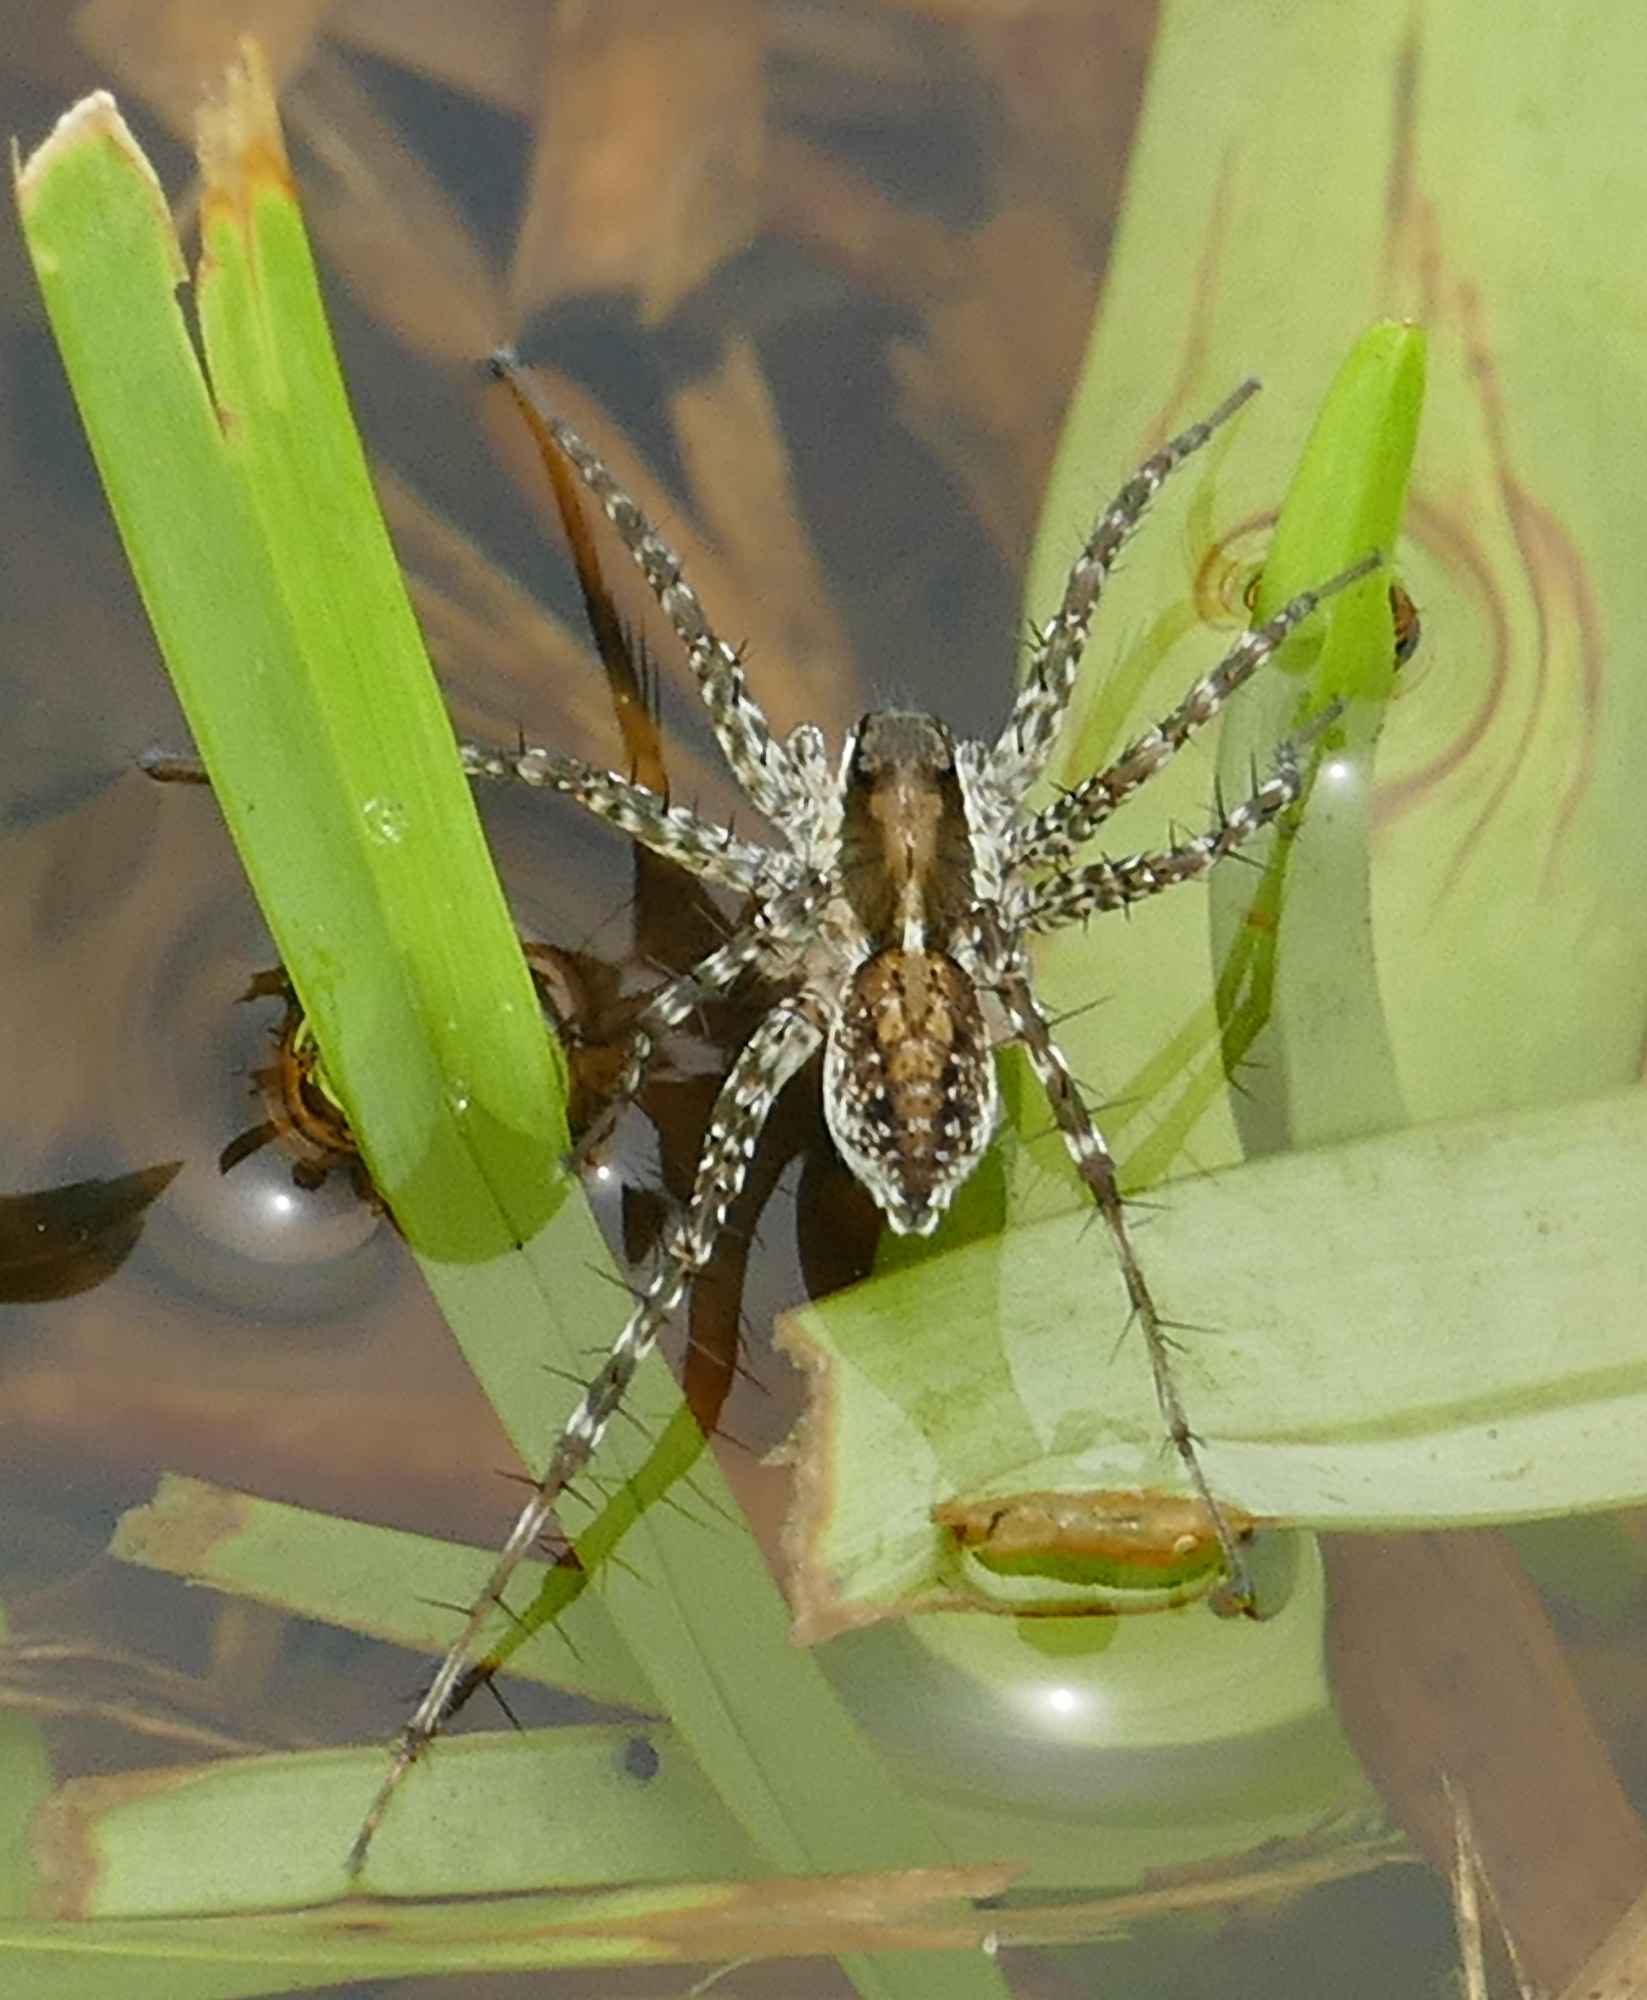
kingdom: Animalia
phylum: Arthropoda
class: Arachnida
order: Araneae
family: Lycosidae
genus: Pardosa
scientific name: Pardosa pauxilla
